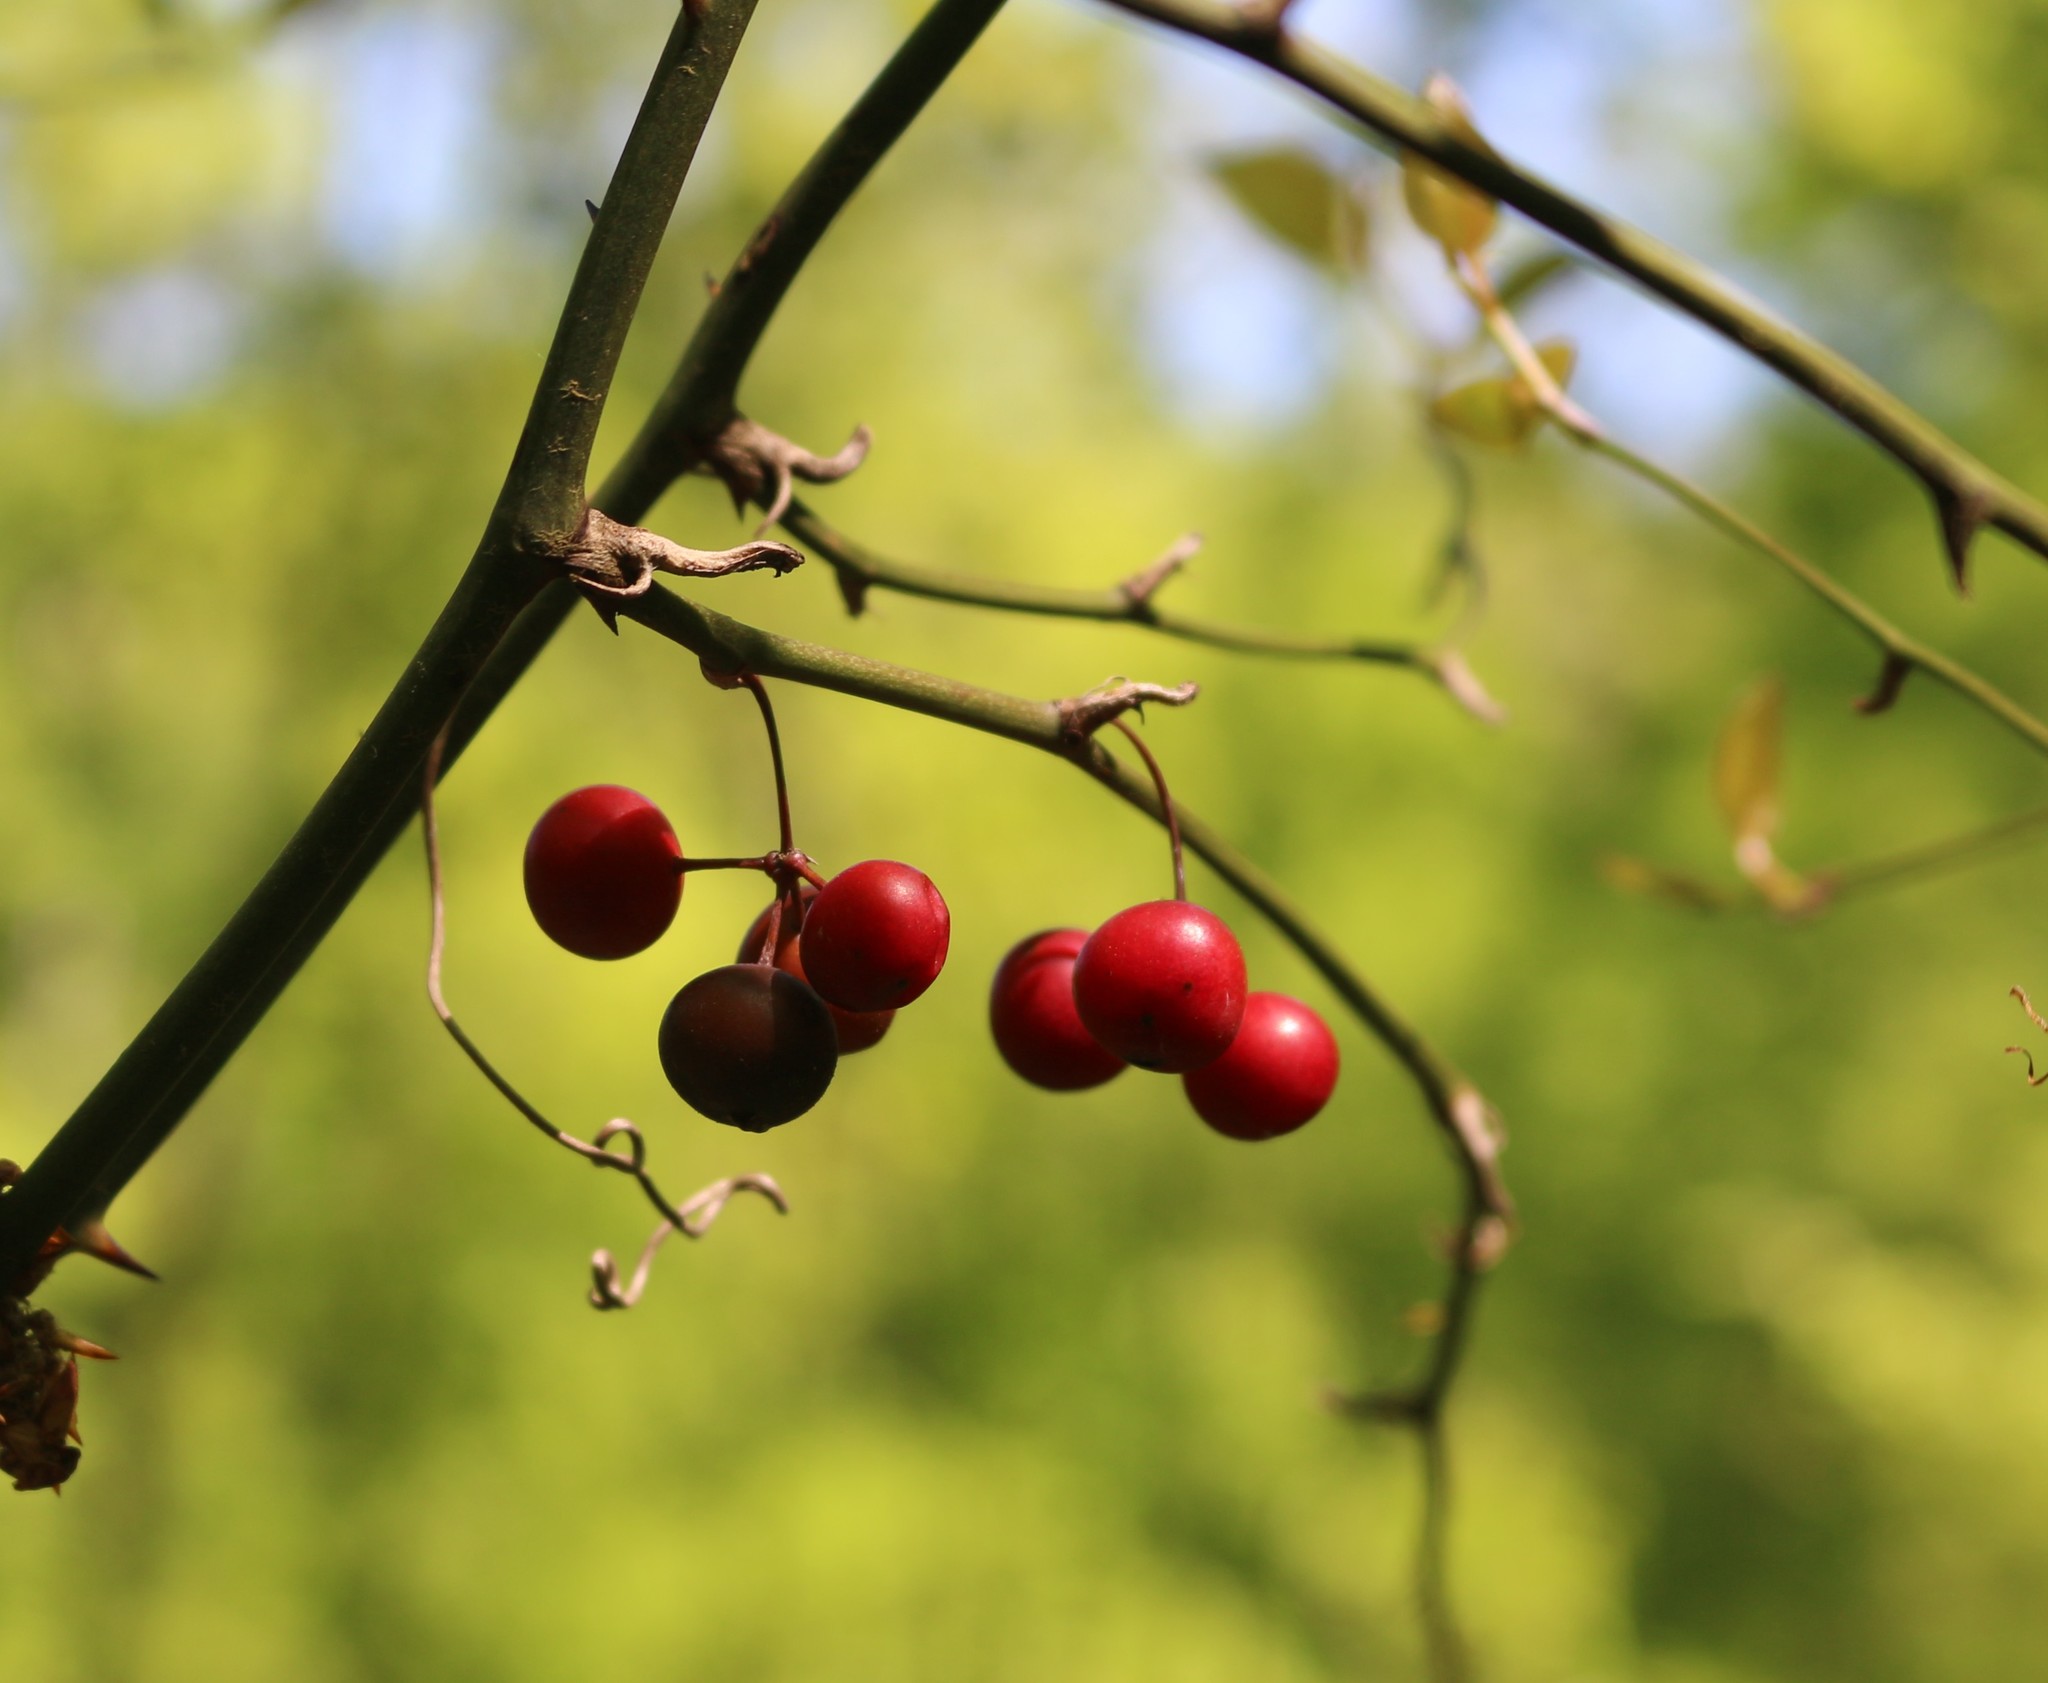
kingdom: Plantae
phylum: Tracheophyta
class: Liliopsida
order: Liliales
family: Smilacaceae
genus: Smilax
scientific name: Smilax excelsa
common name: Larger smilax
